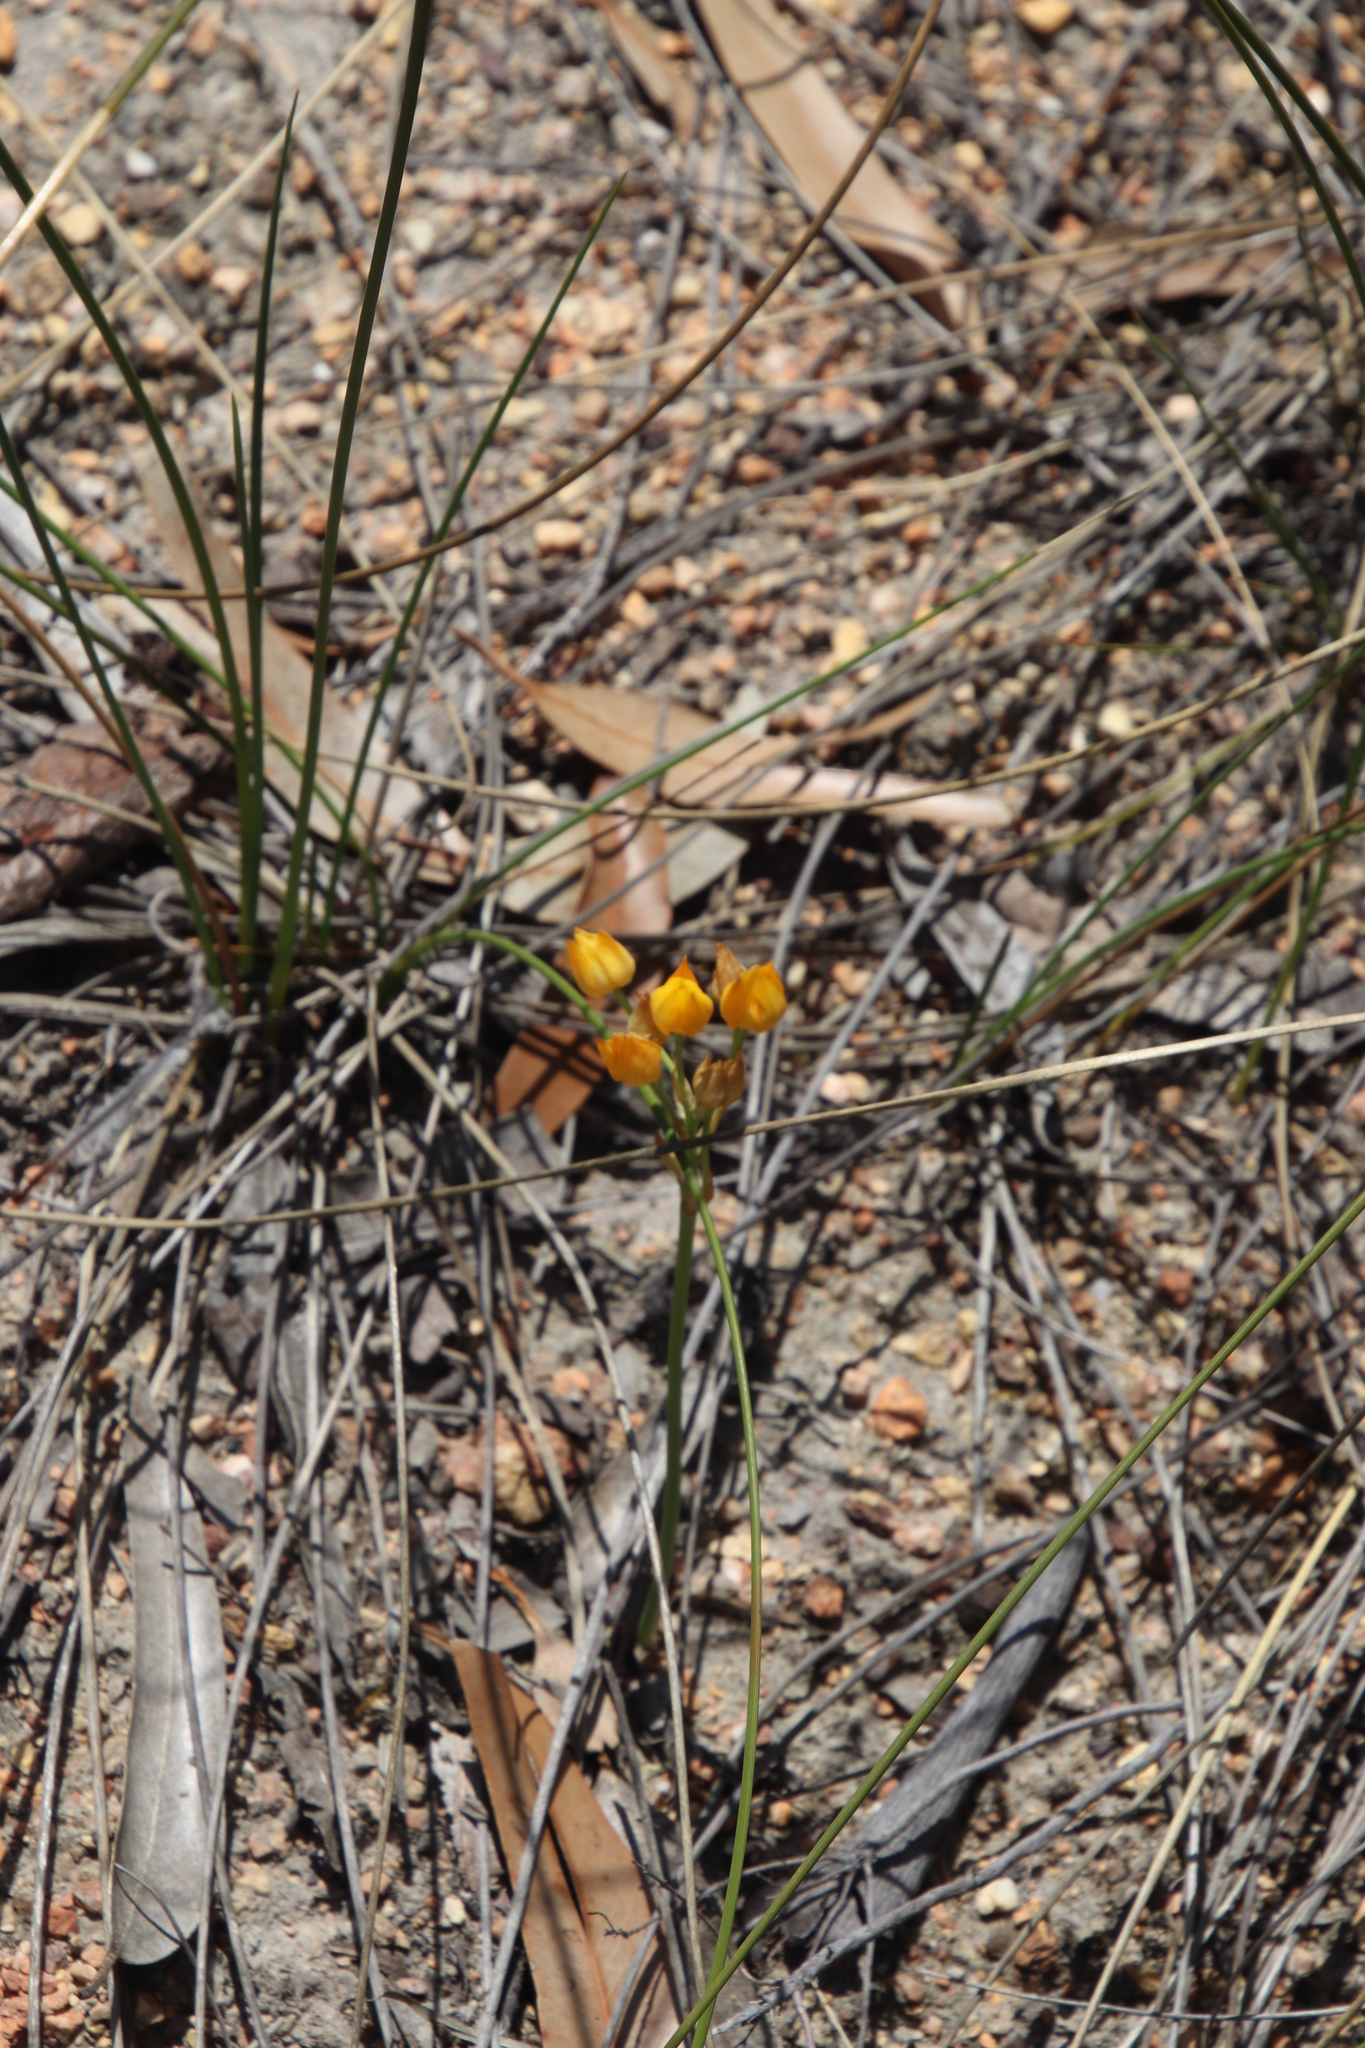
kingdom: Plantae
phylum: Tracheophyta
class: Liliopsida
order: Asparagales
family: Asparagaceae
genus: Ornithogalum
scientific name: Ornithogalum dubium
